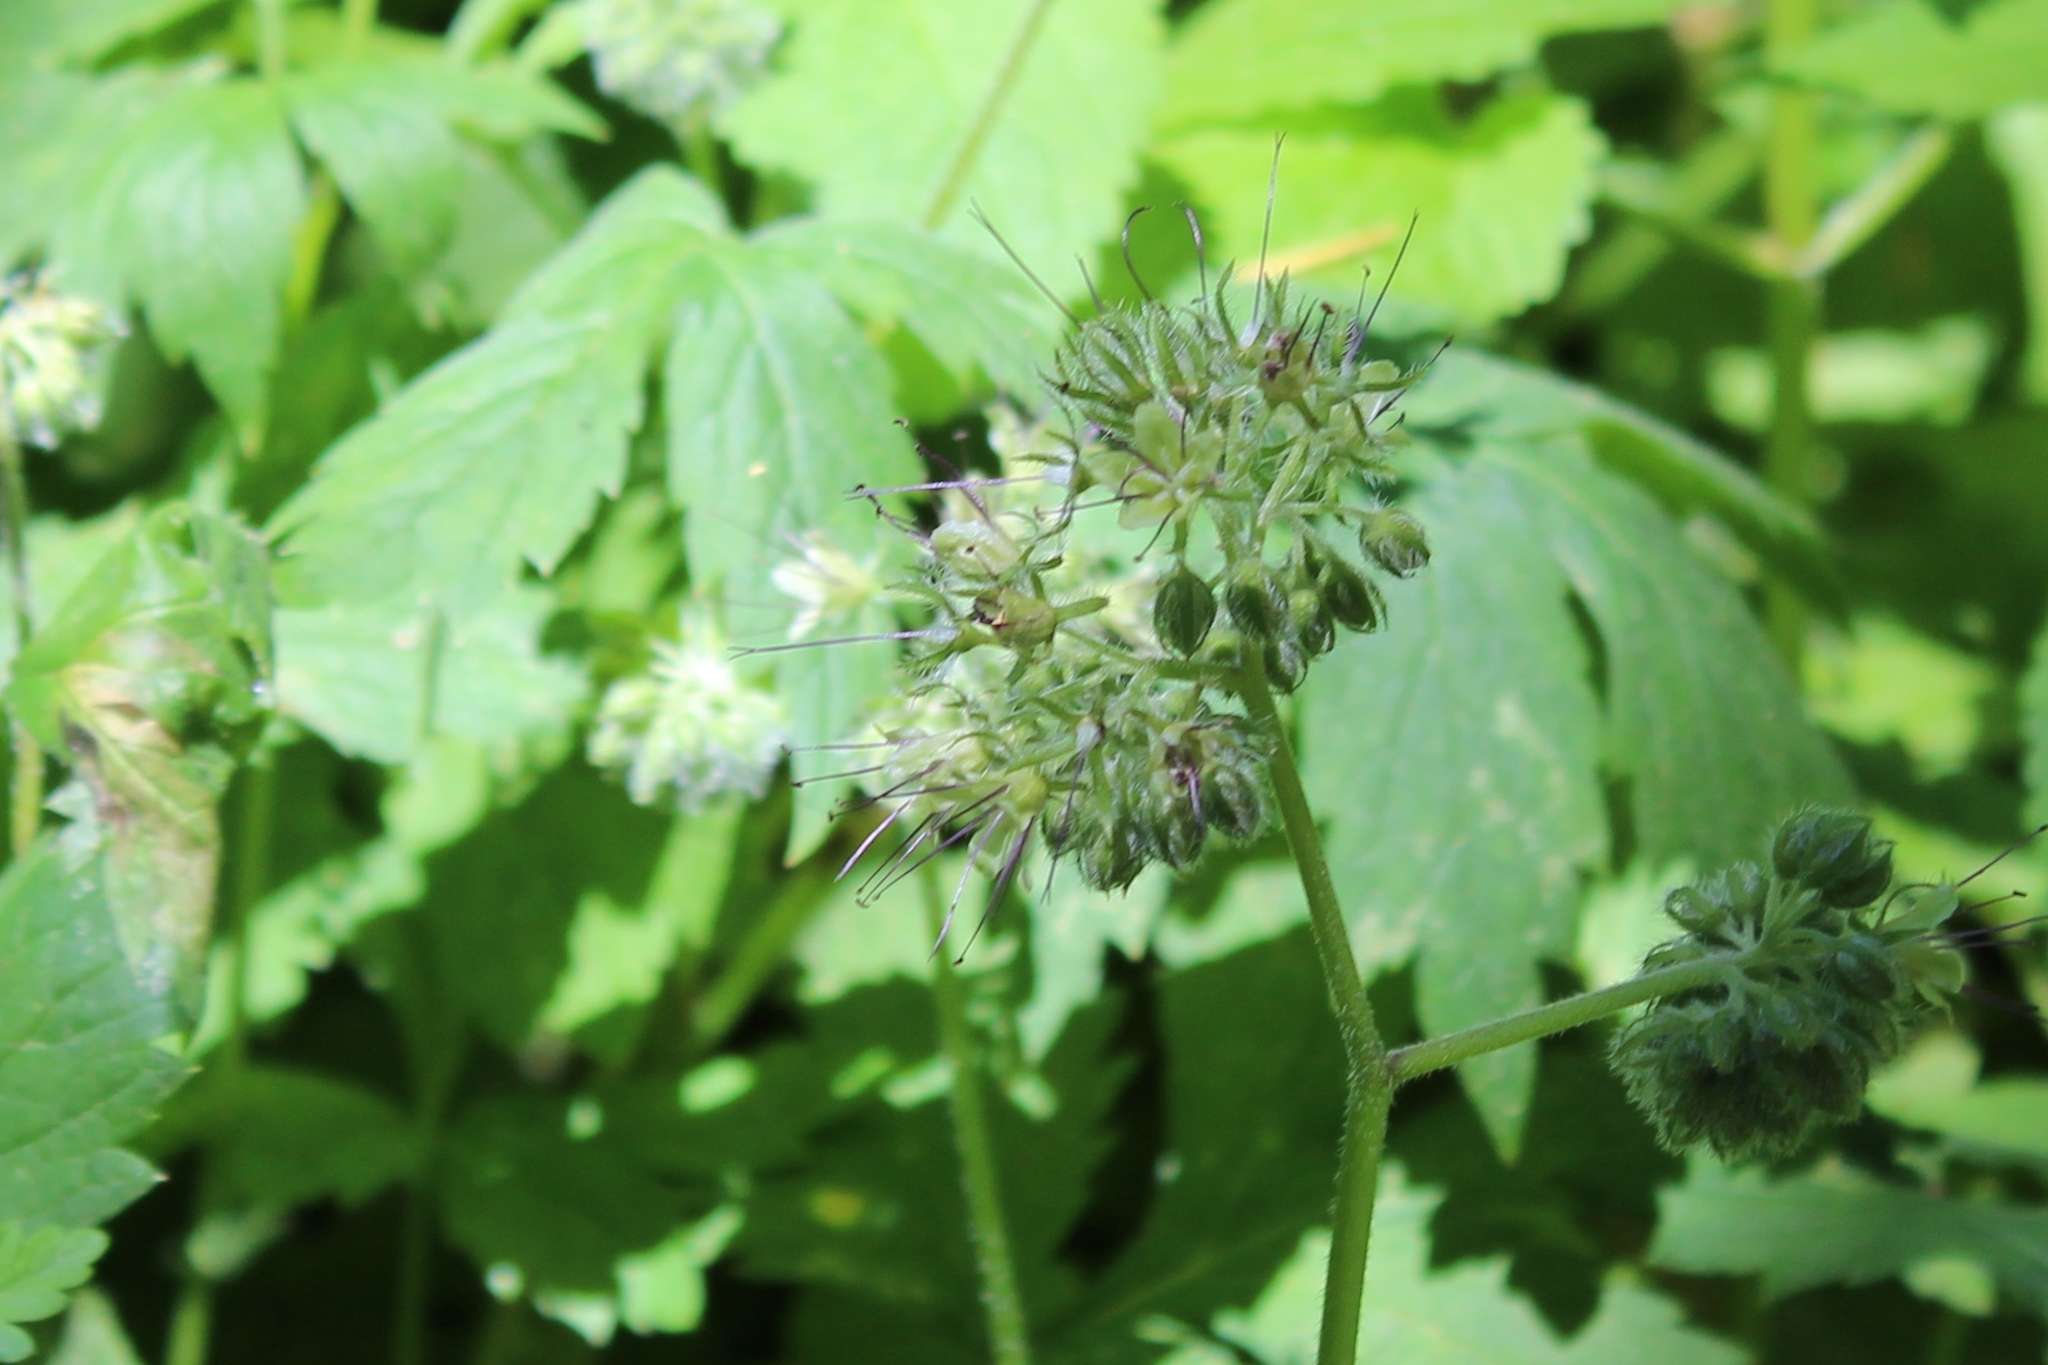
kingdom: Plantae
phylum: Tracheophyta
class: Magnoliopsida
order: Boraginales
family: Hydrophyllaceae
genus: Hydrophyllum
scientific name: Hydrophyllum tenuipes
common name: Pacific waterleaf
